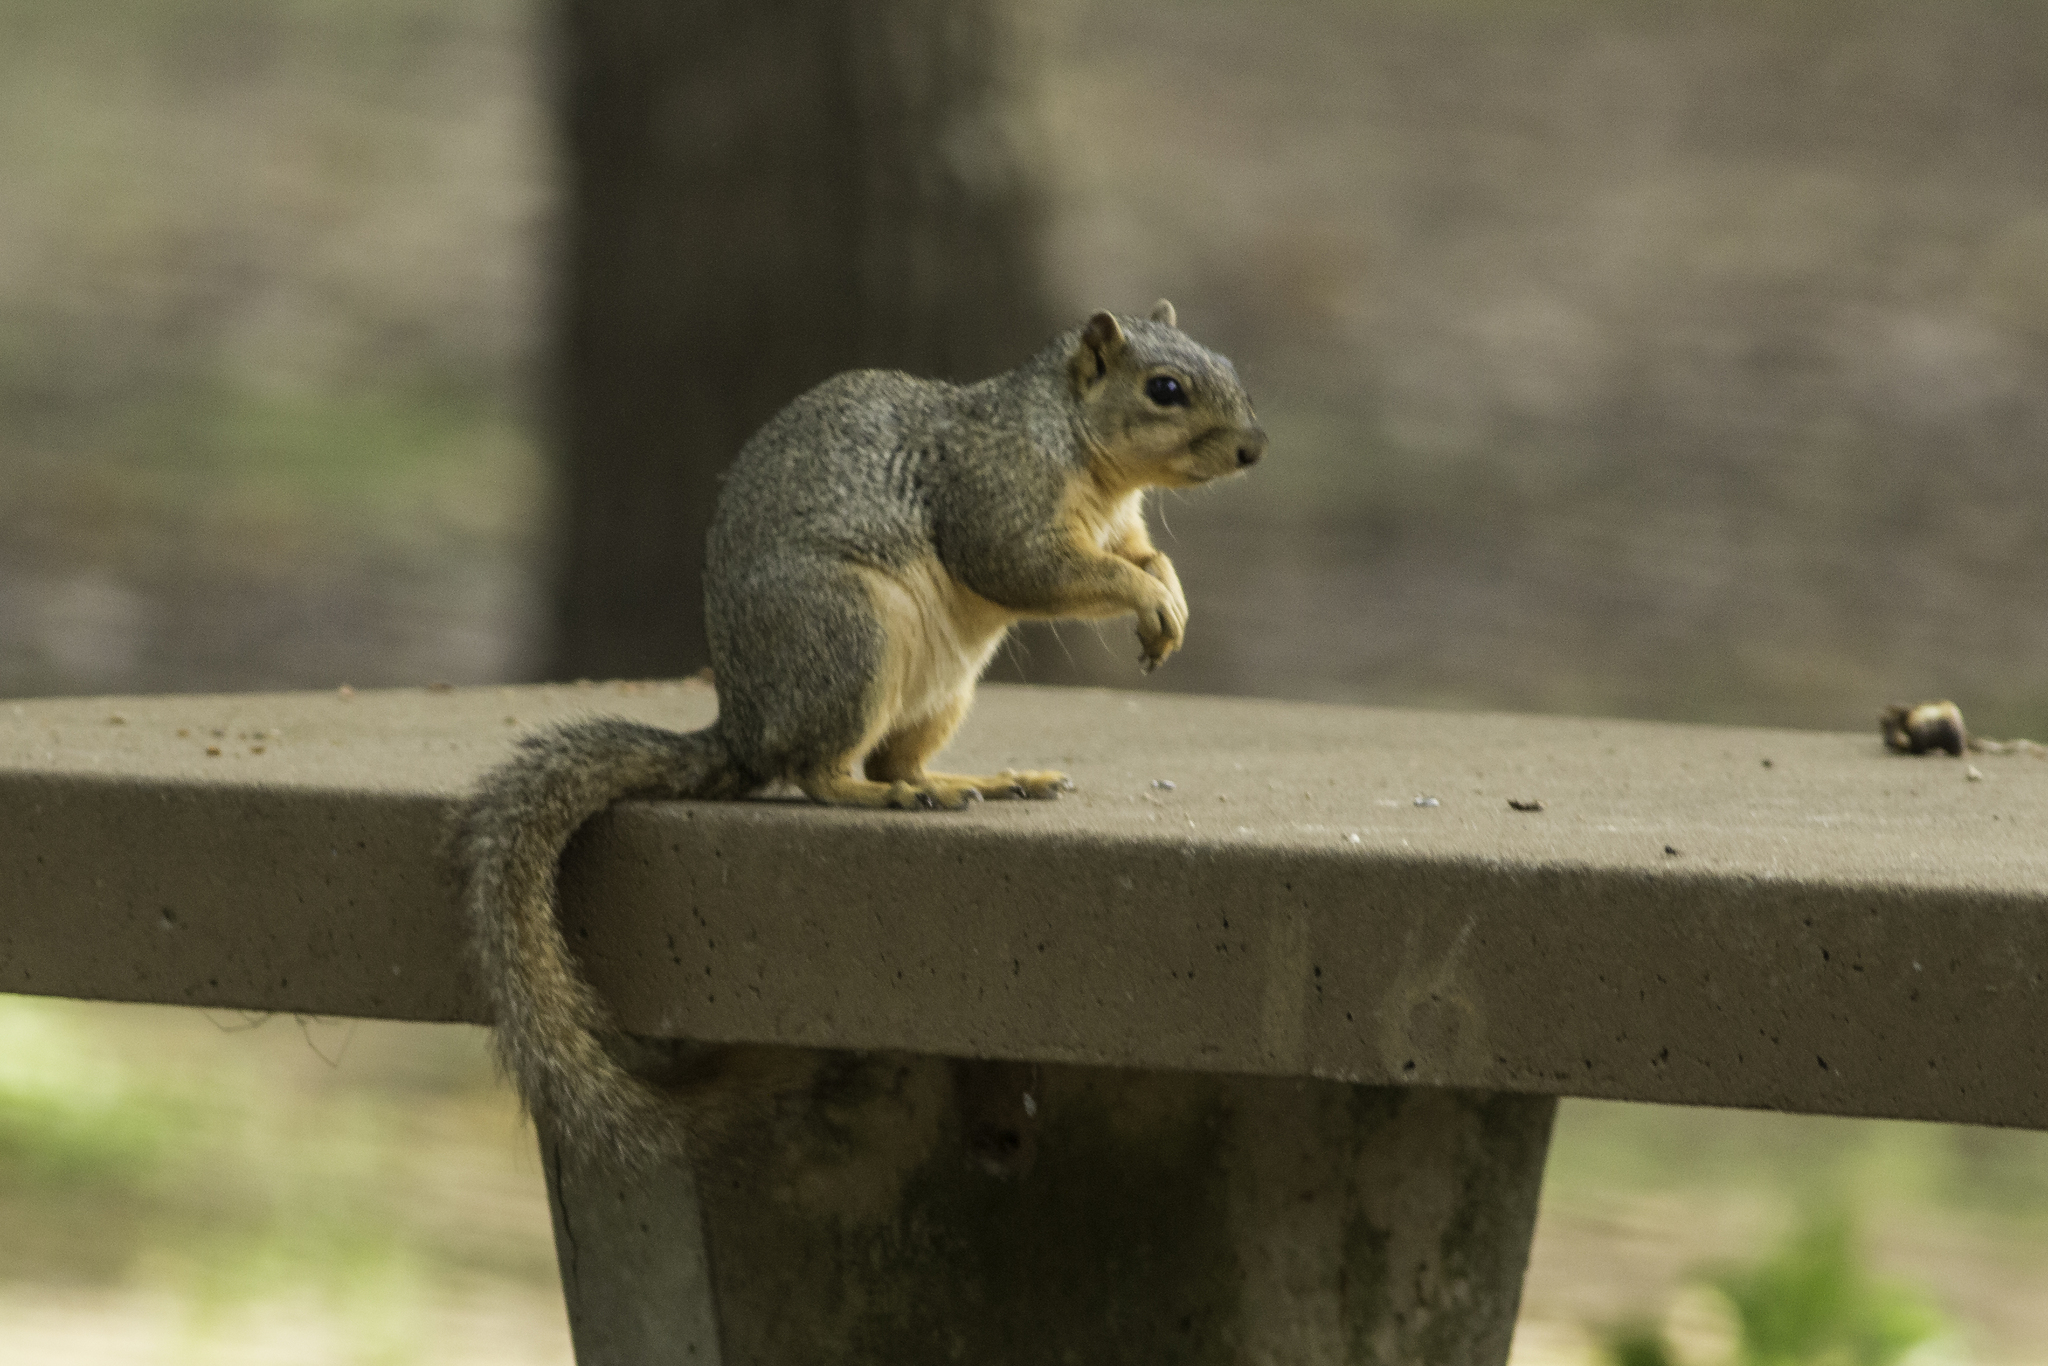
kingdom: Animalia
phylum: Chordata
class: Mammalia
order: Rodentia
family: Sciuridae
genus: Sciurus
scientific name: Sciurus niger
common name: Fox squirrel
